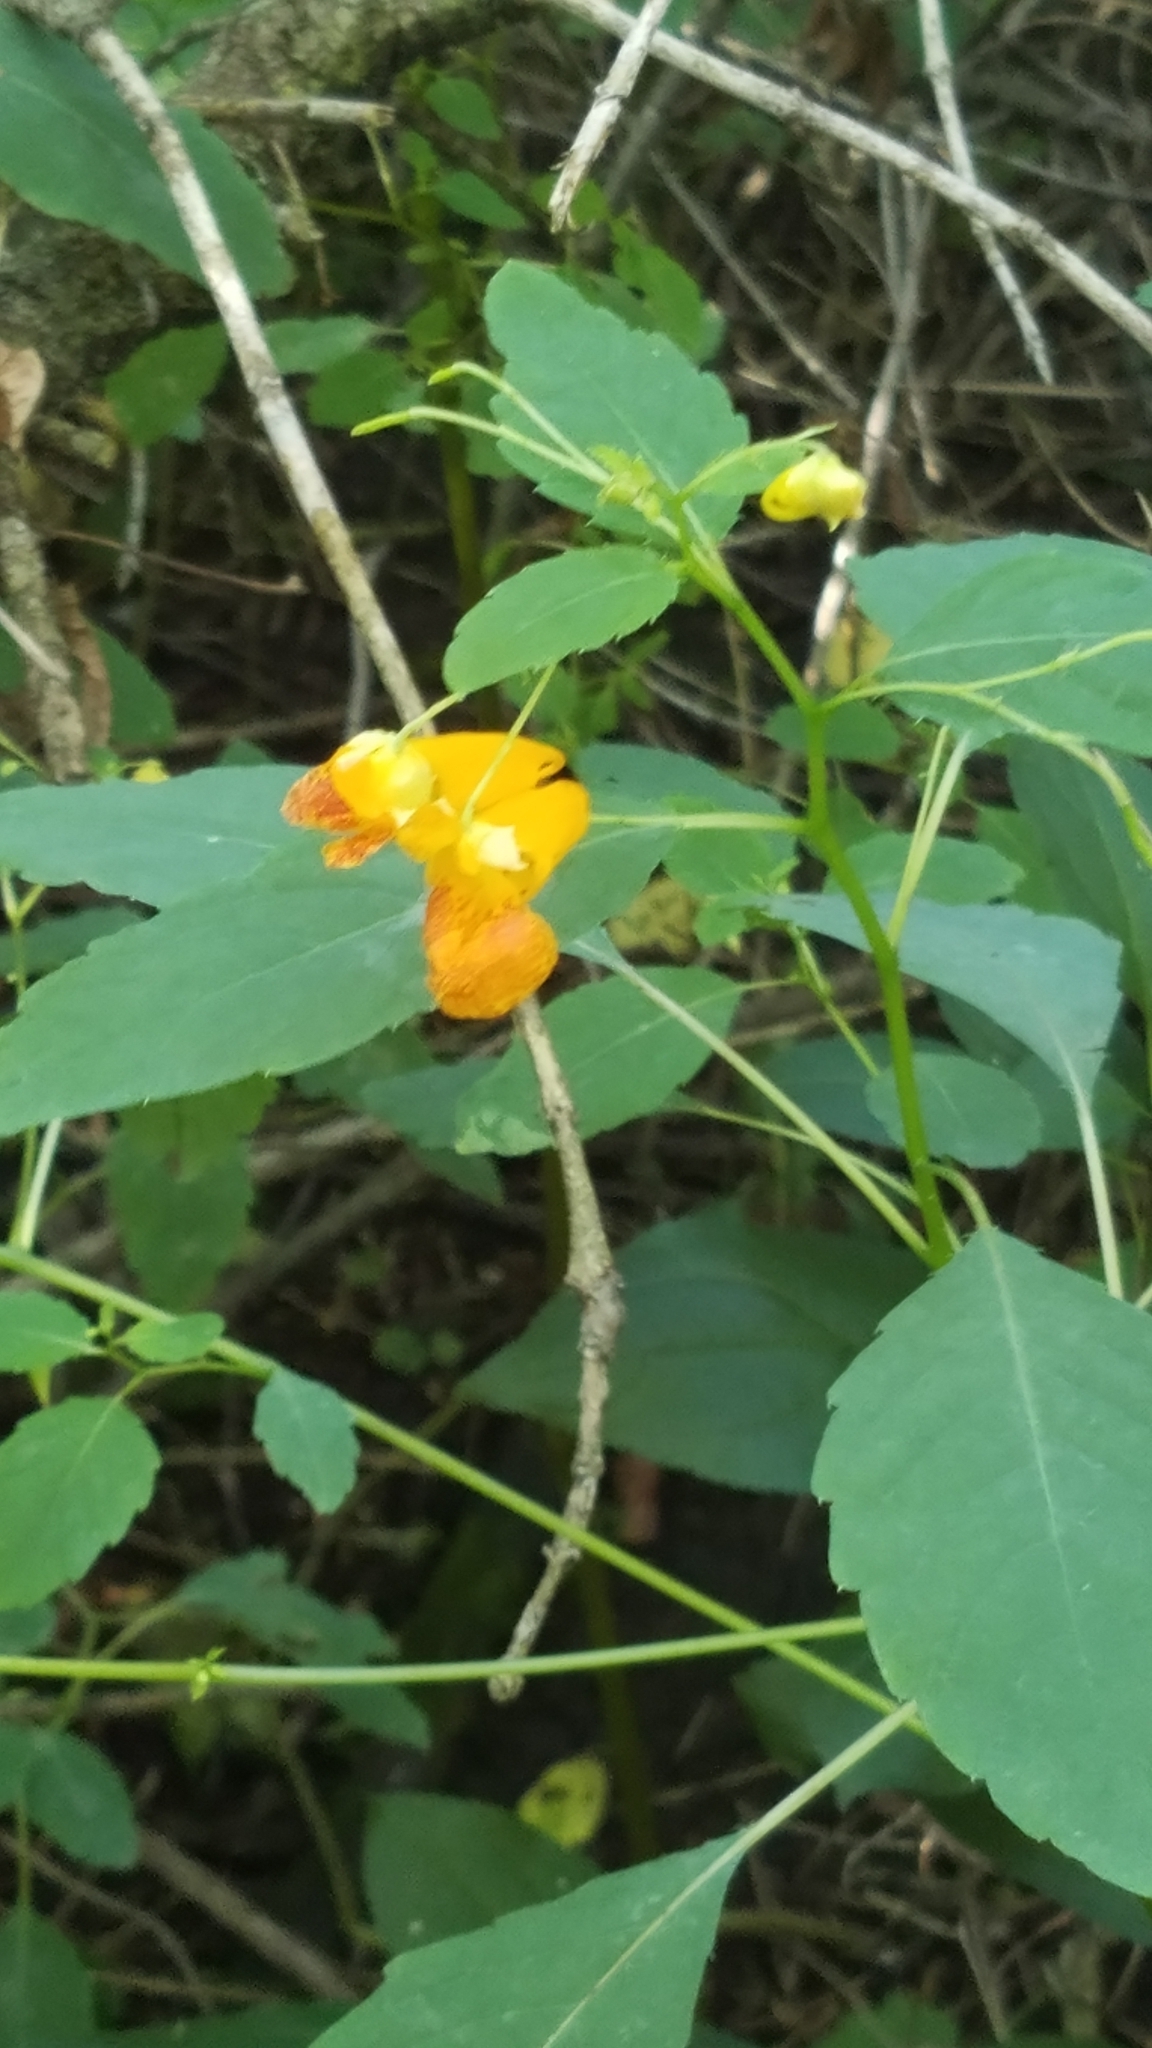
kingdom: Plantae
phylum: Tracheophyta
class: Magnoliopsida
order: Ericales
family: Balsaminaceae
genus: Impatiens
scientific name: Impatiens capensis
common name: Orange balsam
